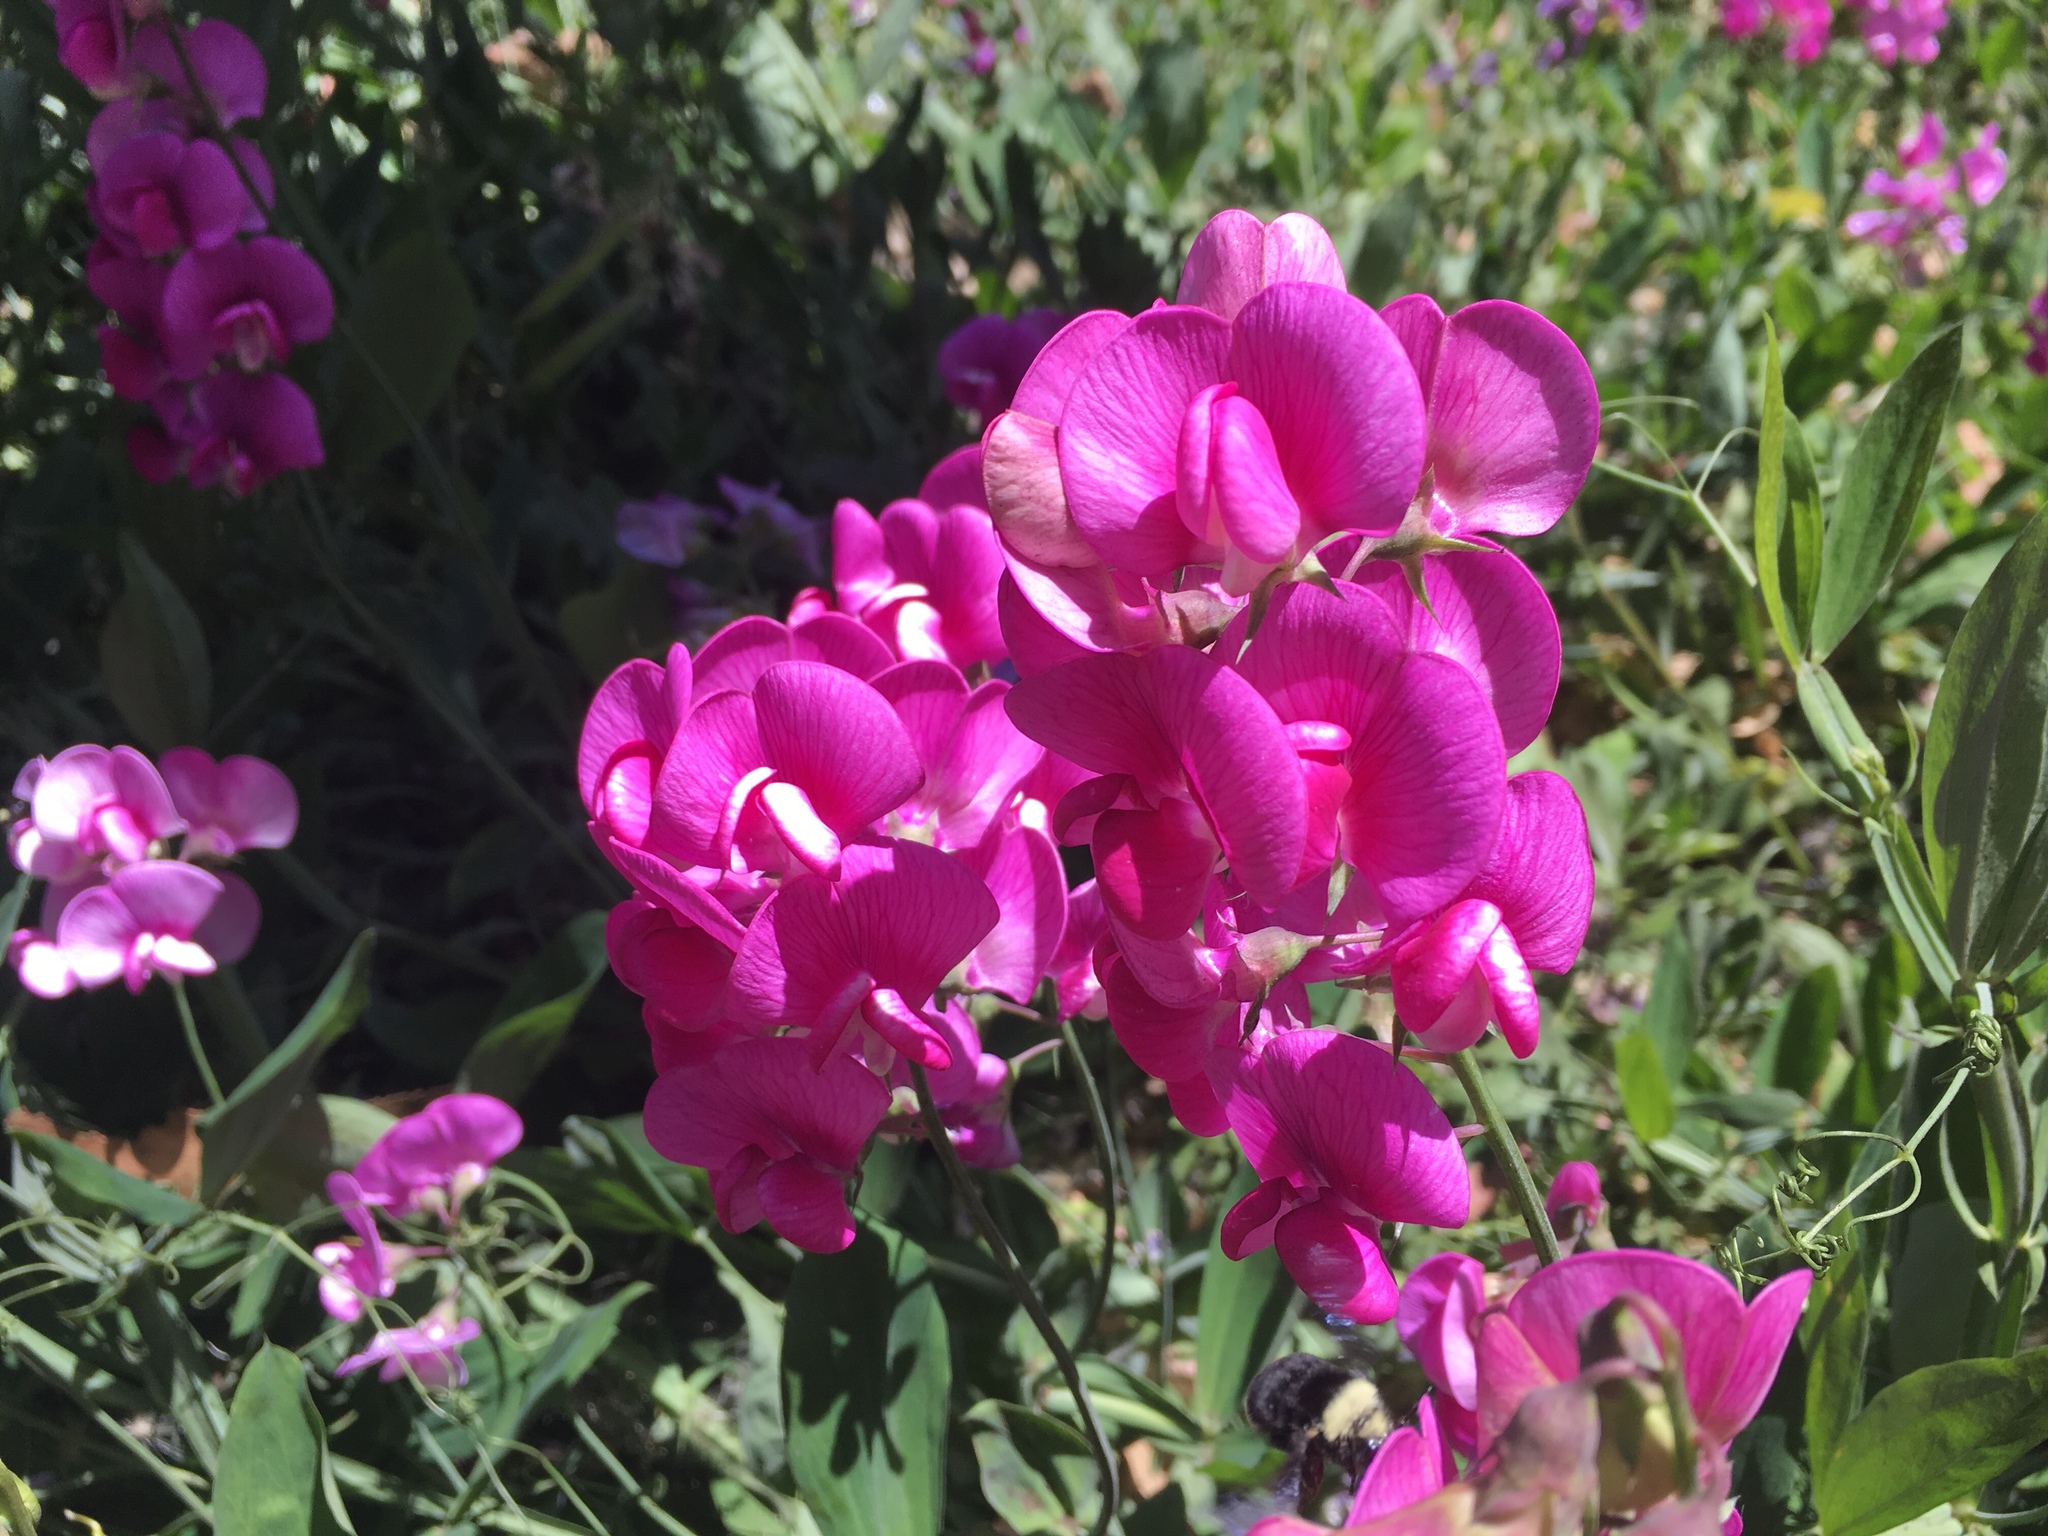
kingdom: Plantae
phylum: Tracheophyta
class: Magnoliopsida
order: Fabales
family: Fabaceae
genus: Lathyrus
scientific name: Lathyrus latifolius
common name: Perennial pea
